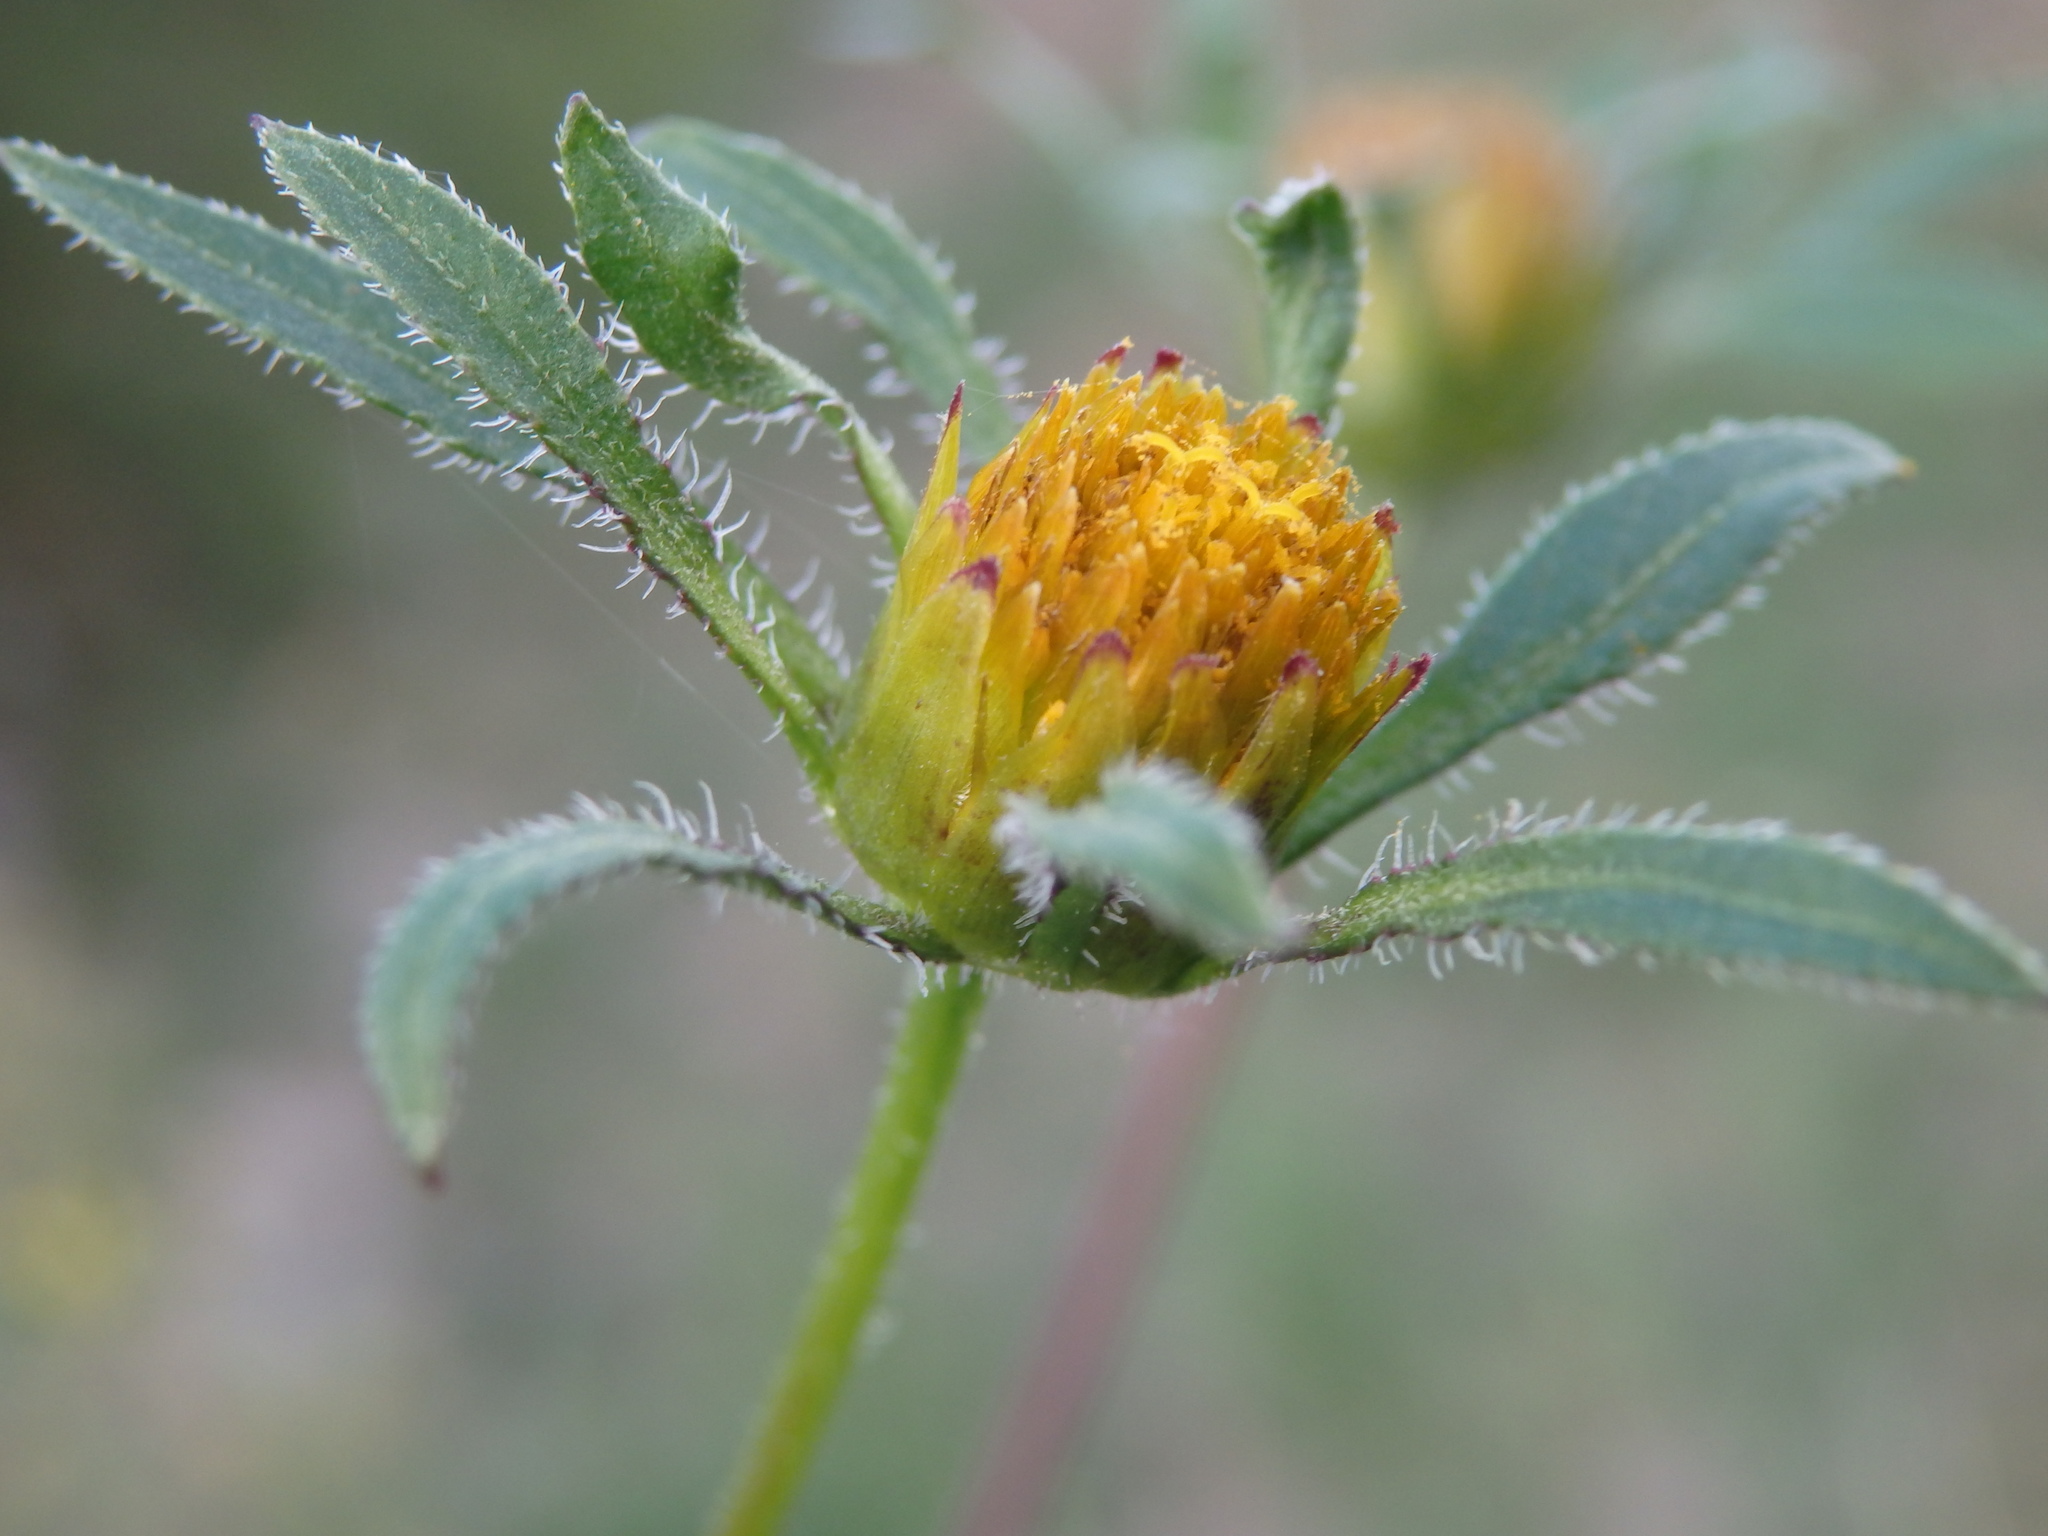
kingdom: Plantae
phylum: Tracheophyta
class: Magnoliopsida
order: Asterales
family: Asteraceae
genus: Bidens
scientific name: Bidens frondosa
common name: Beggarticks
